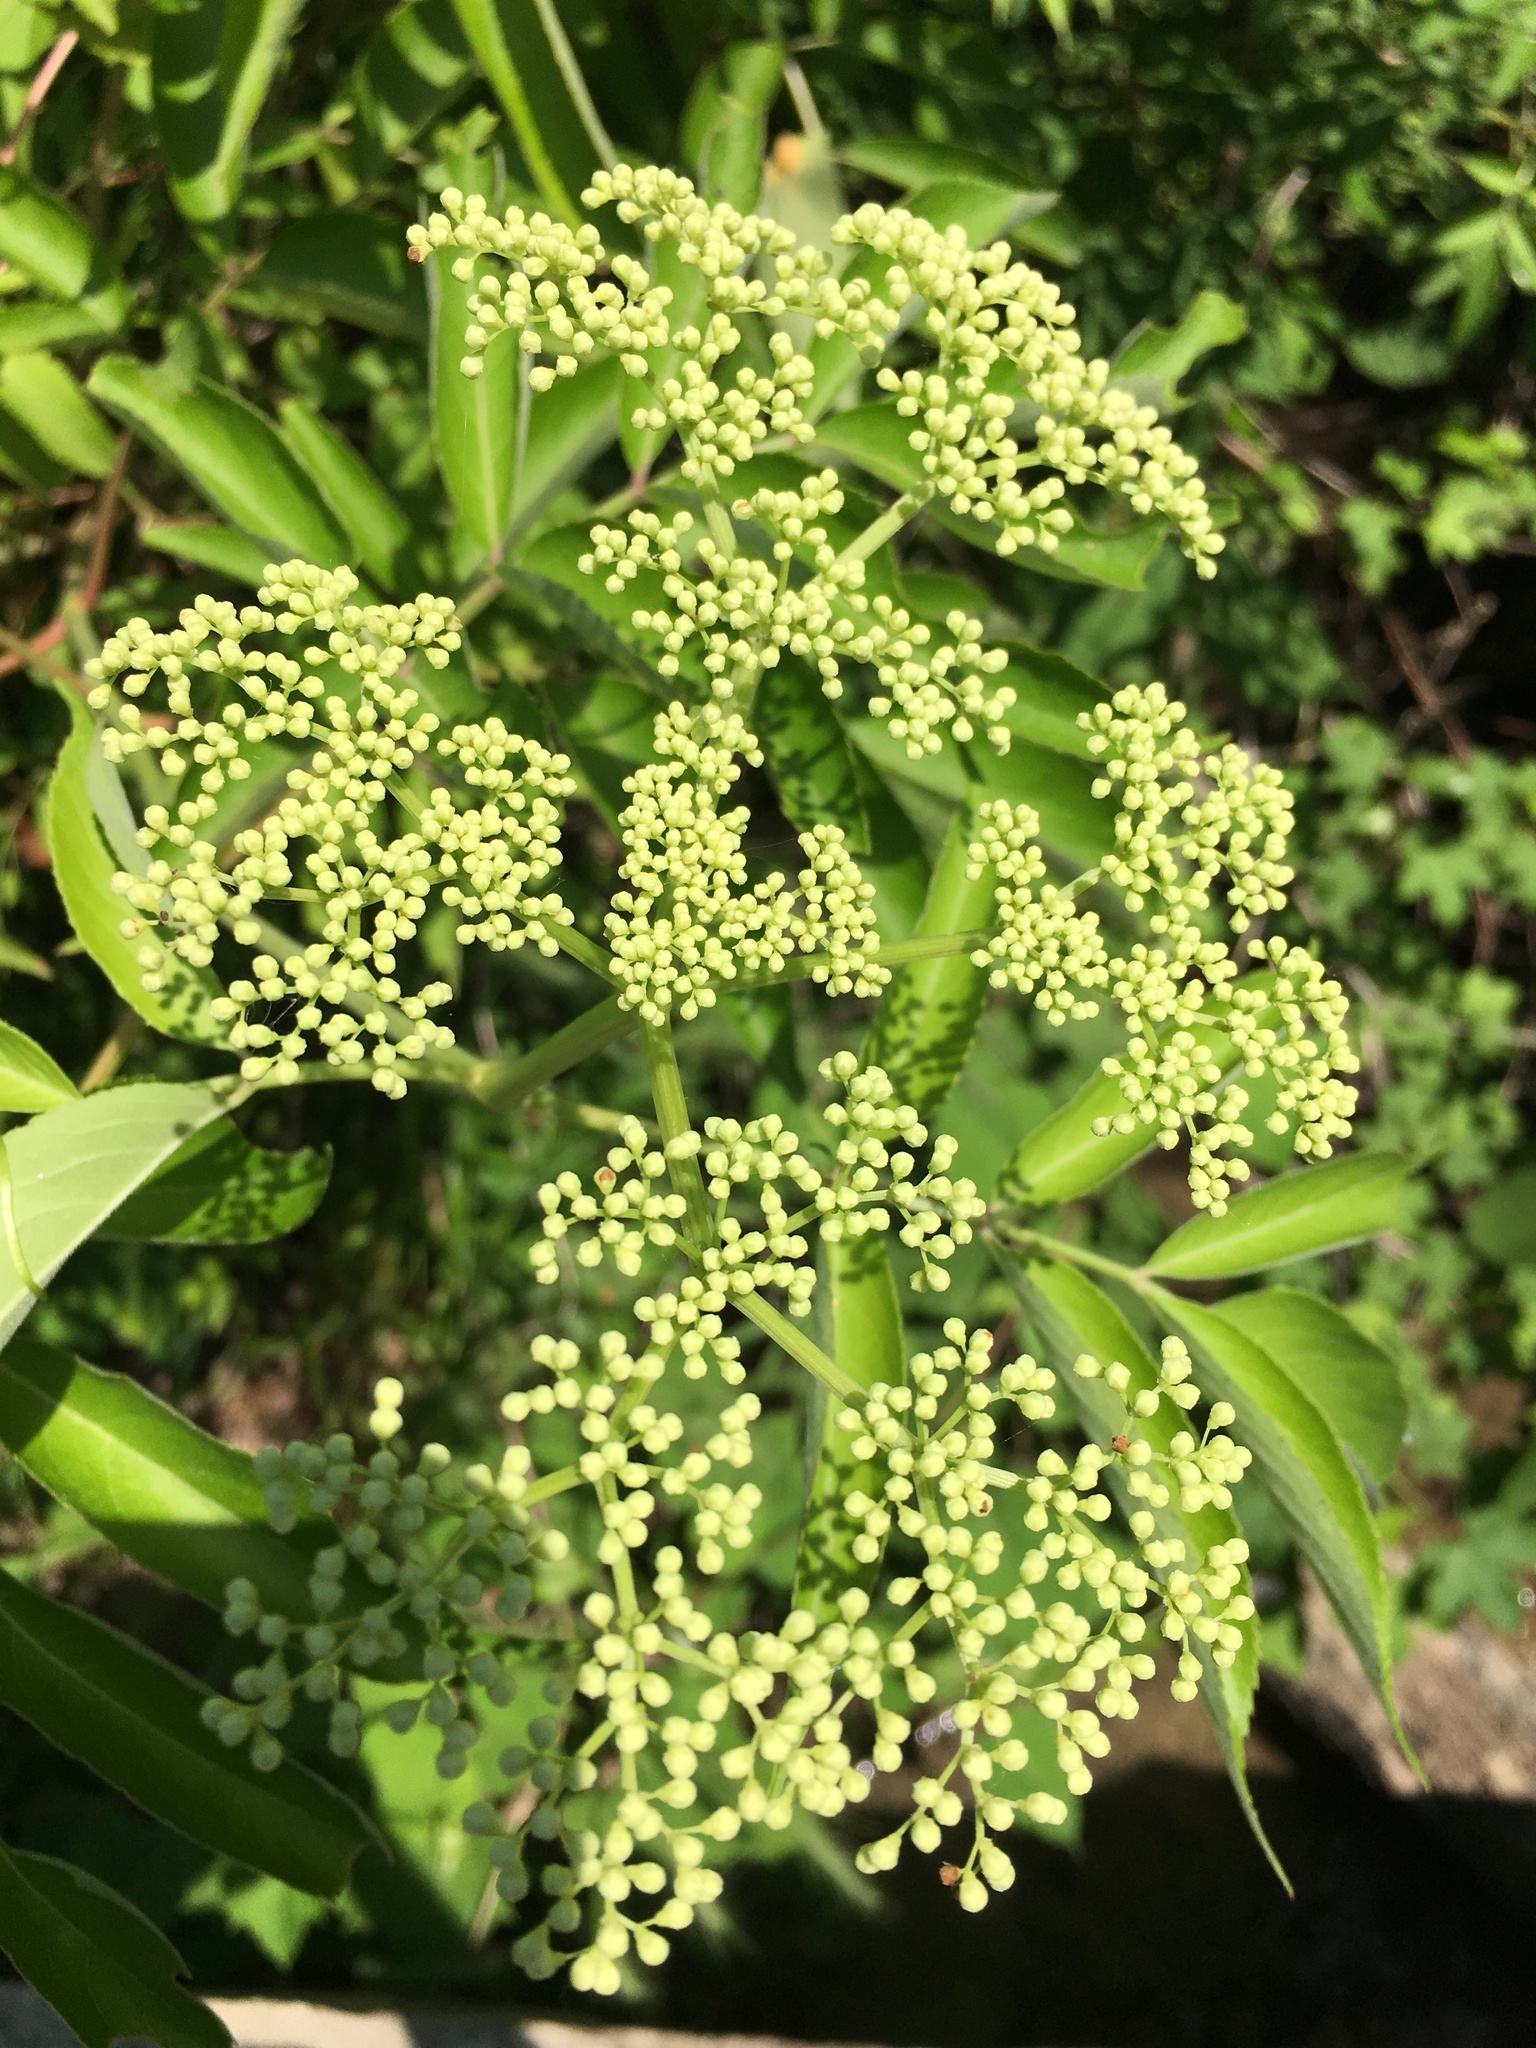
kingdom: Plantae
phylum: Tracheophyta
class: Magnoliopsida
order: Dipsacales
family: Viburnaceae
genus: Sambucus
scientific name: Sambucus canadensis
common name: American elder
